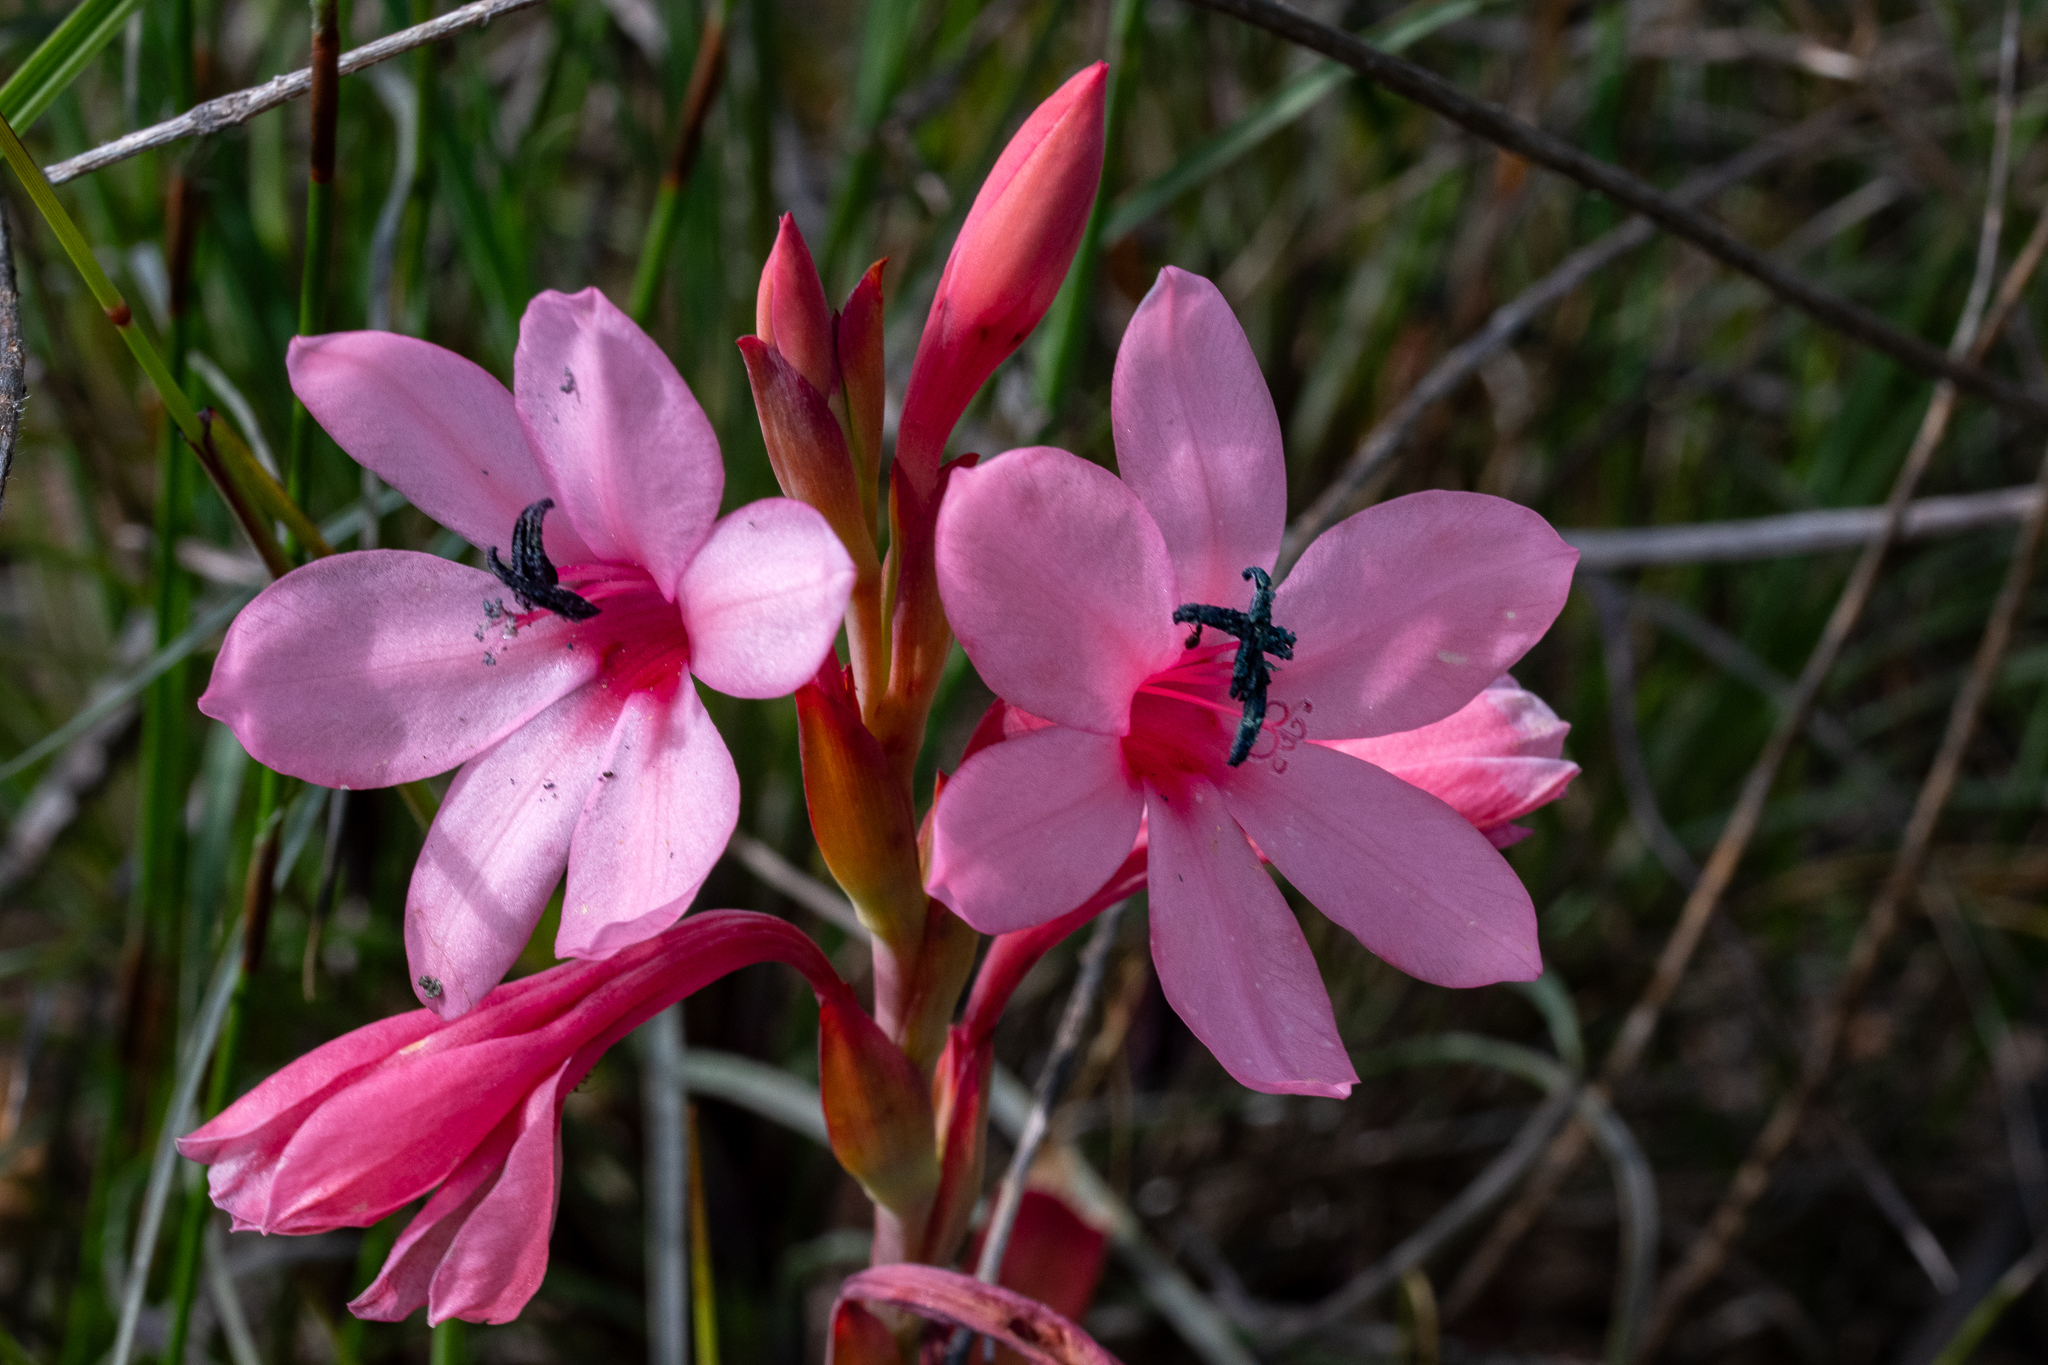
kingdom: Plantae
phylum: Tracheophyta
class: Liliopsida
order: Asparagales
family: Iridaceae
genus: Watsonia
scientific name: Watsonia humilis
